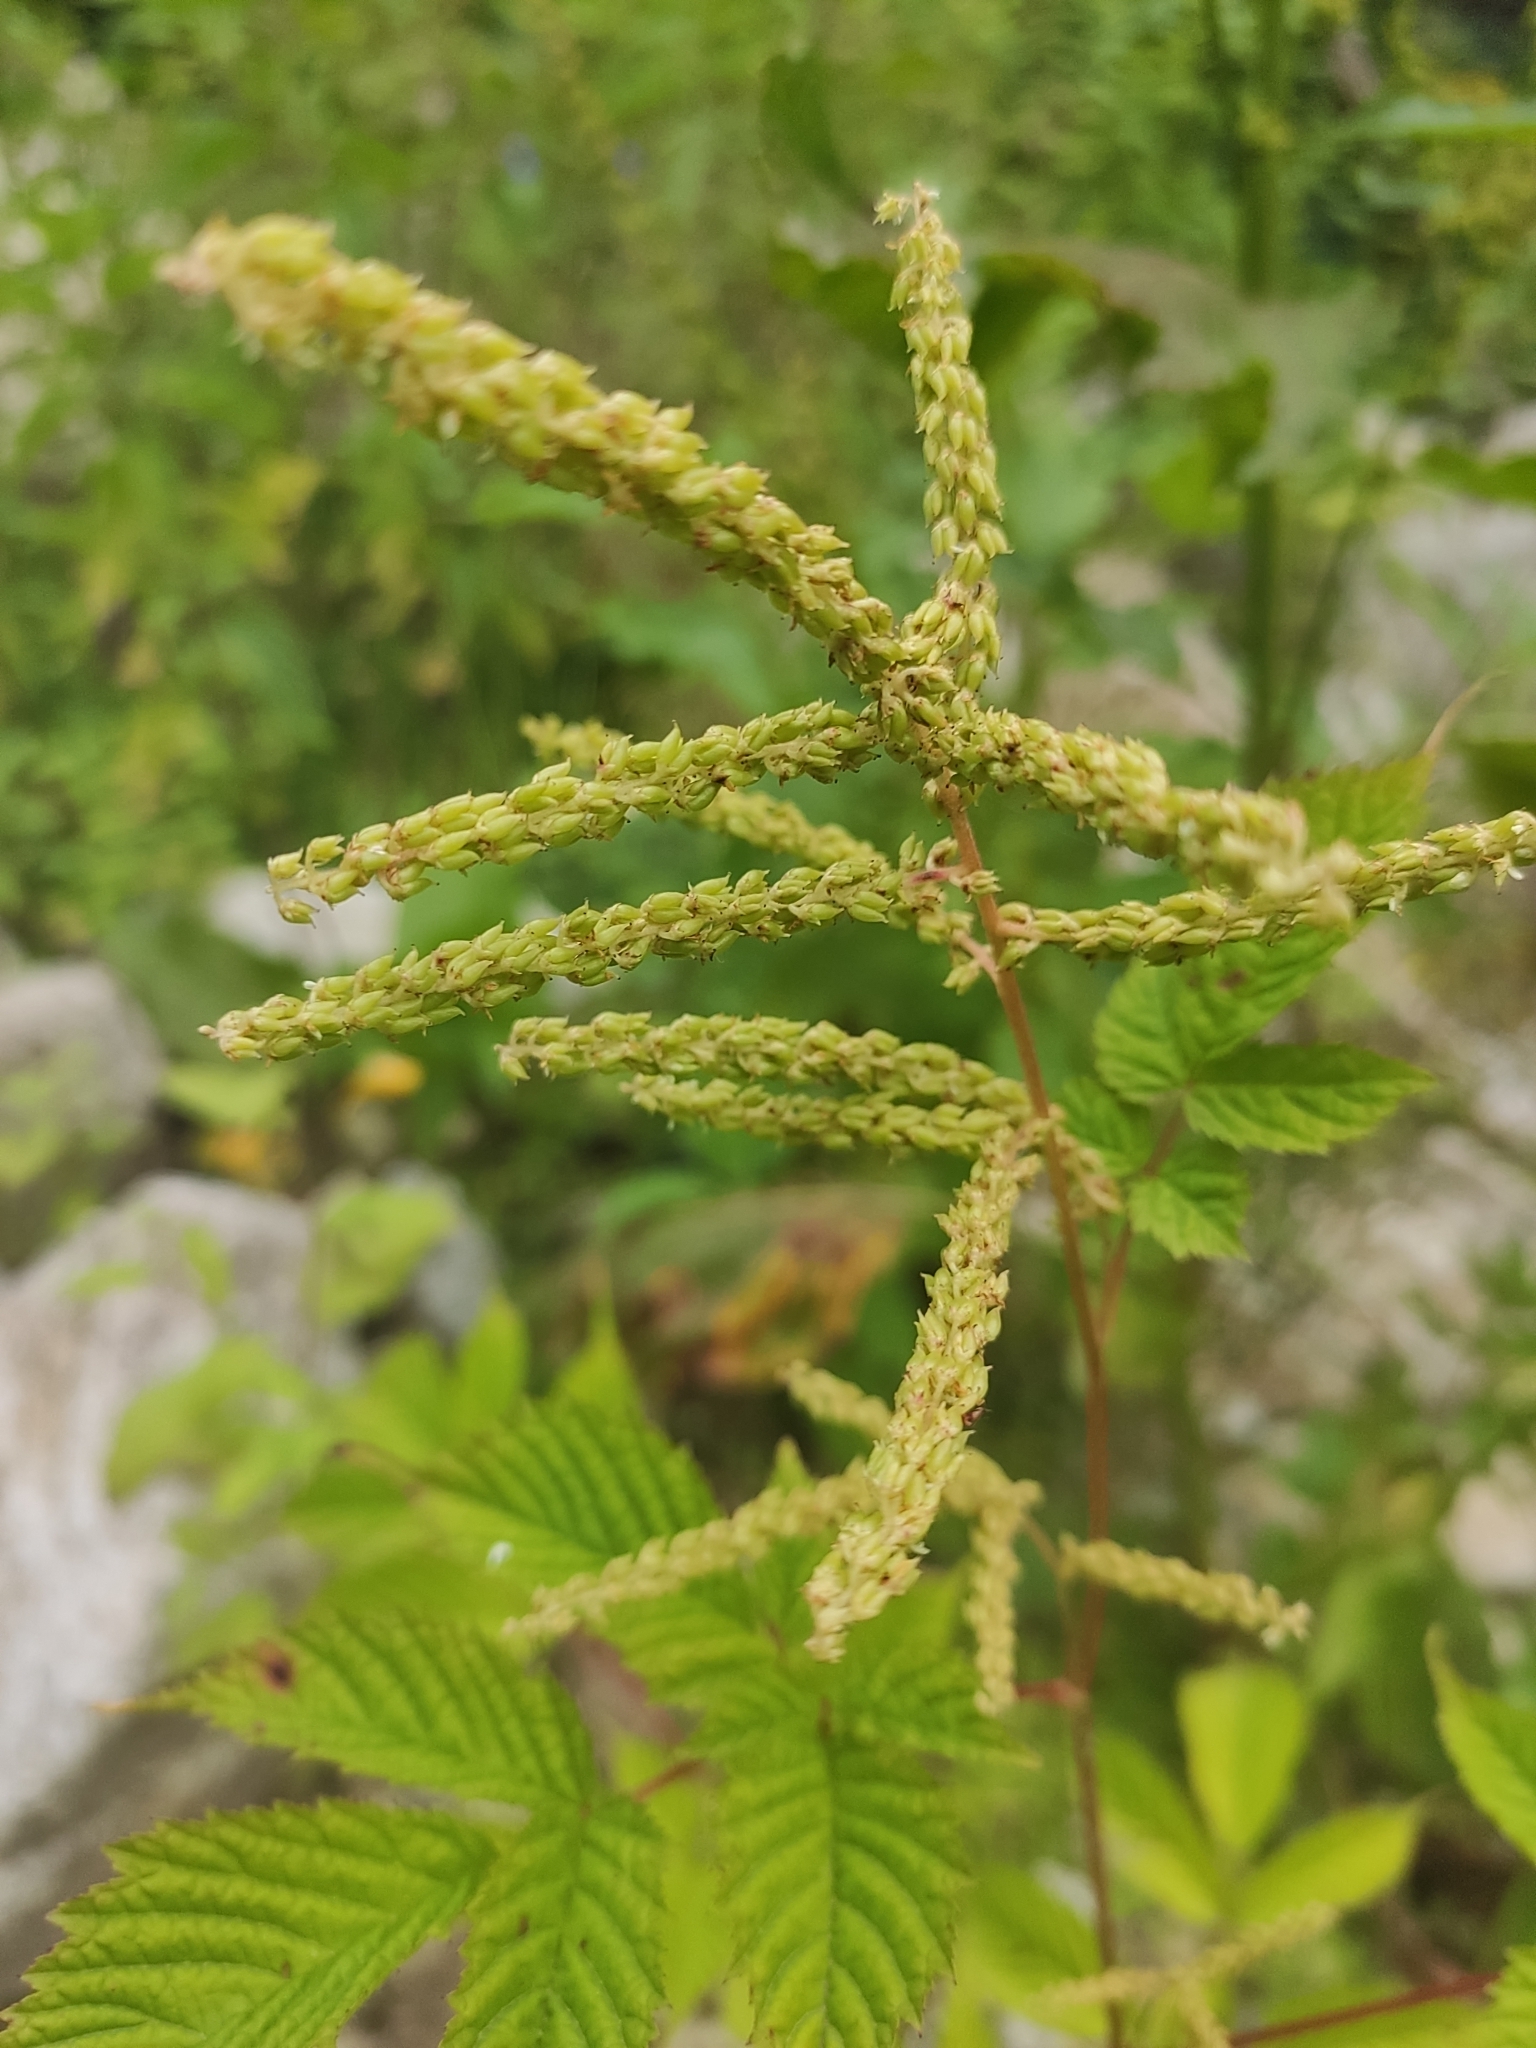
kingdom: Plantae
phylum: Tracheophyta
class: Magnoliopsida
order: Rosales
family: Rosaceae
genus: Aruncus
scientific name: Aruncus dioicus
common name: Buck's-beard
